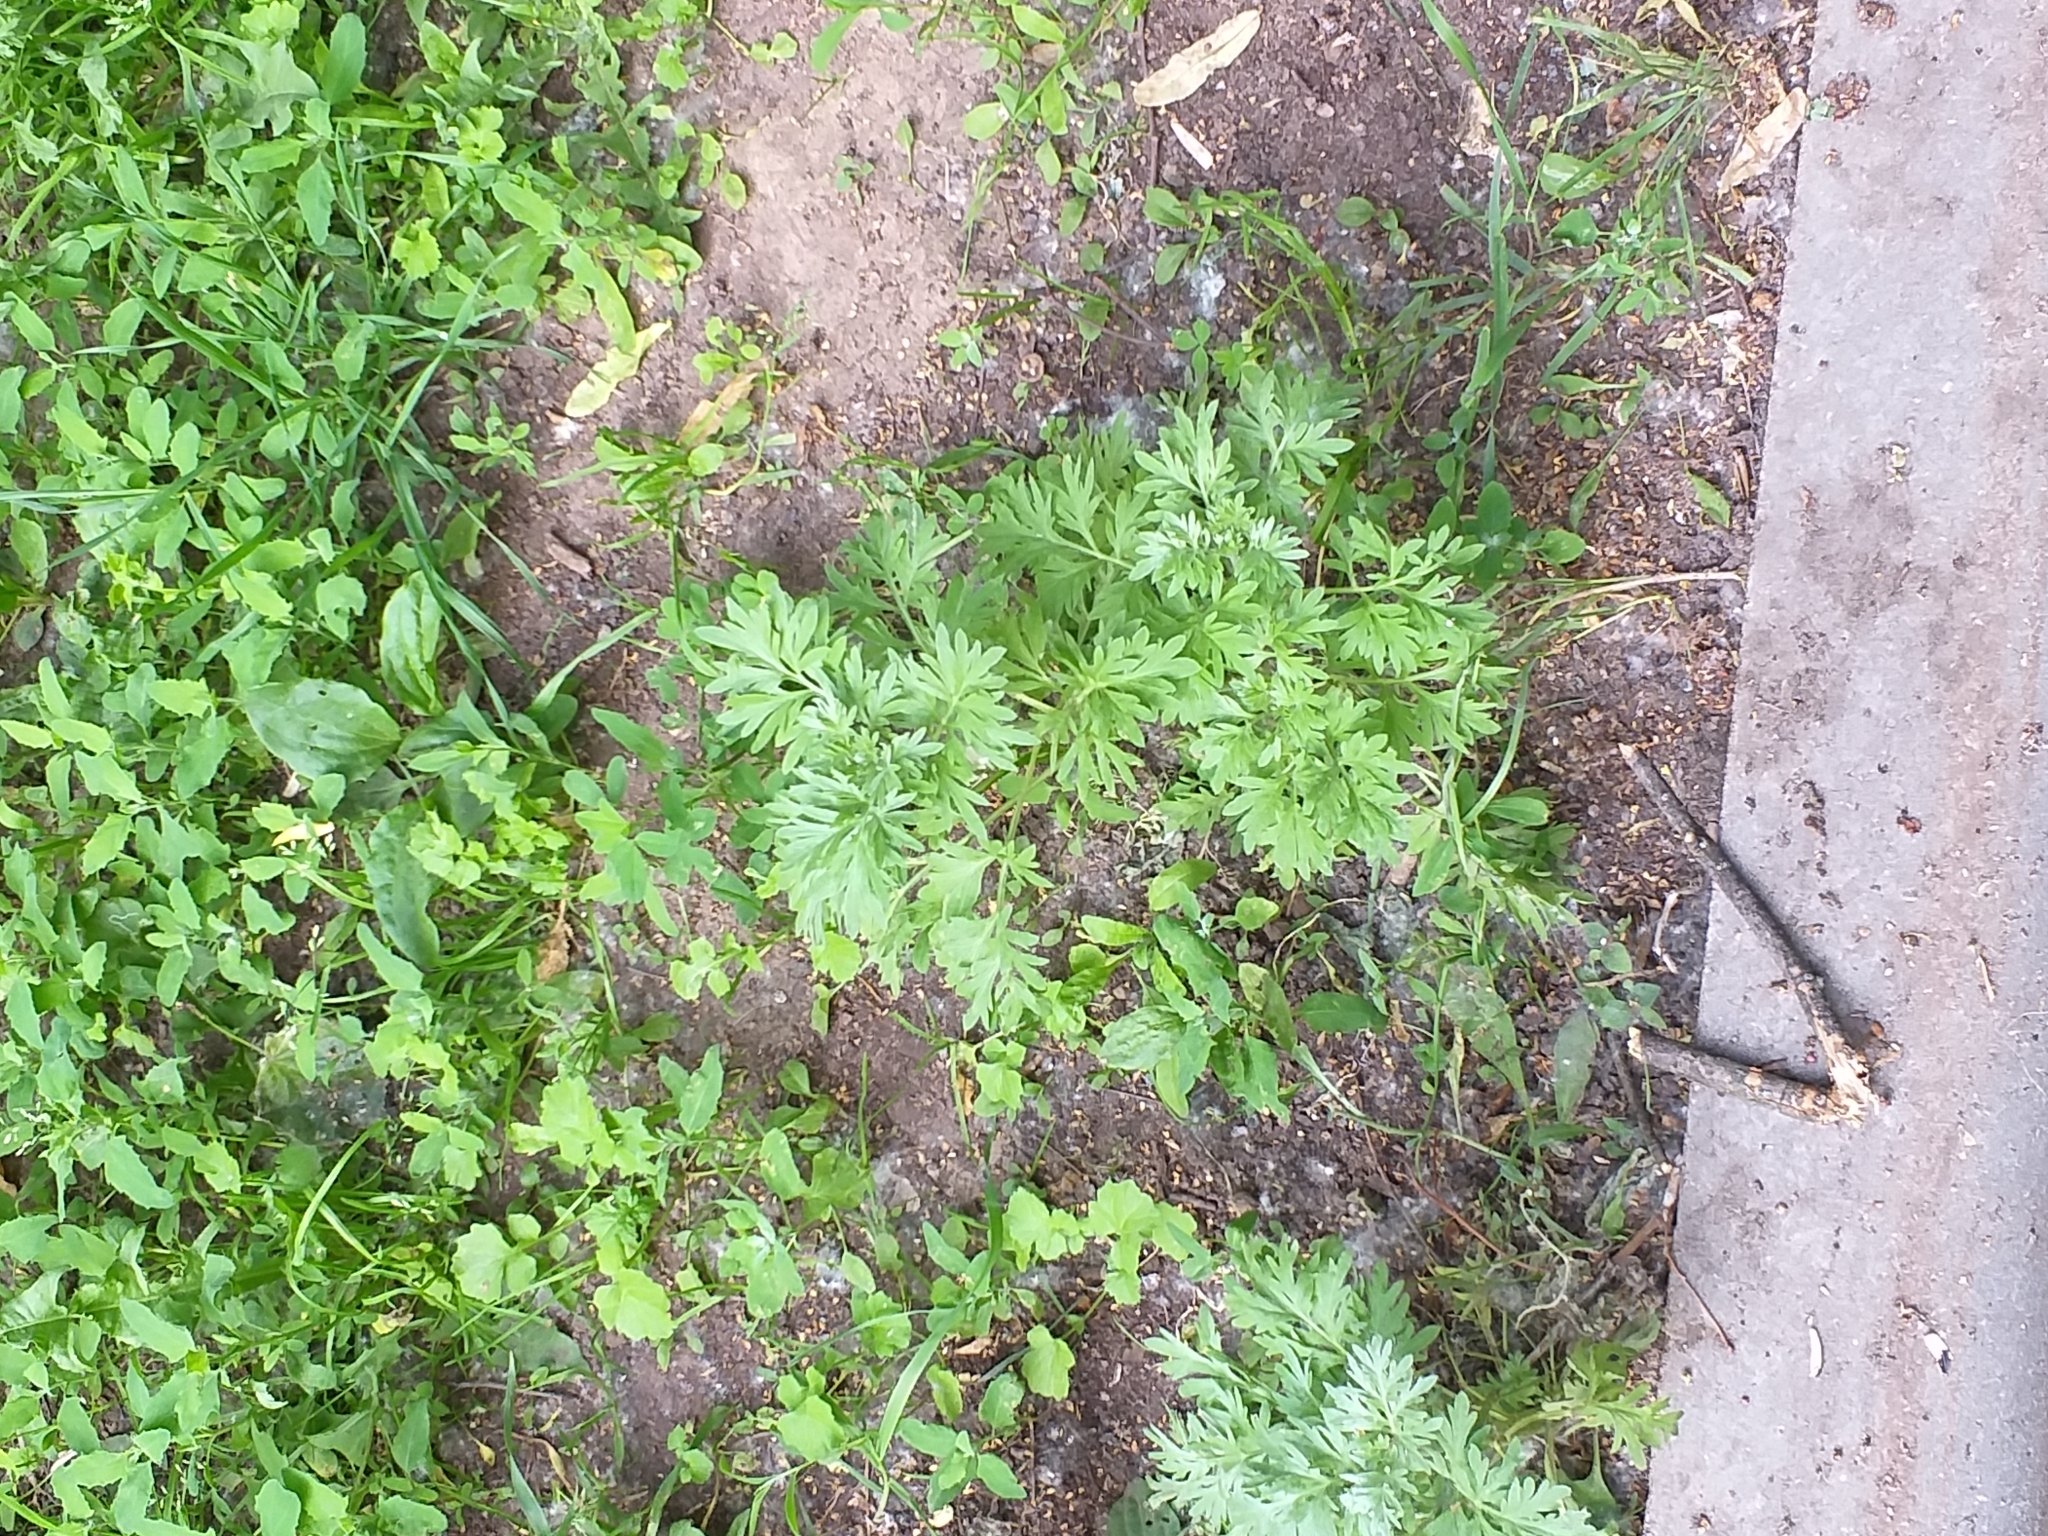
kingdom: Plantae
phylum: Tracheophyta
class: Magnoliopsida
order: Asterales
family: Asteraceae
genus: Artemisia
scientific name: Artemisia absinthium
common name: Wormwood
